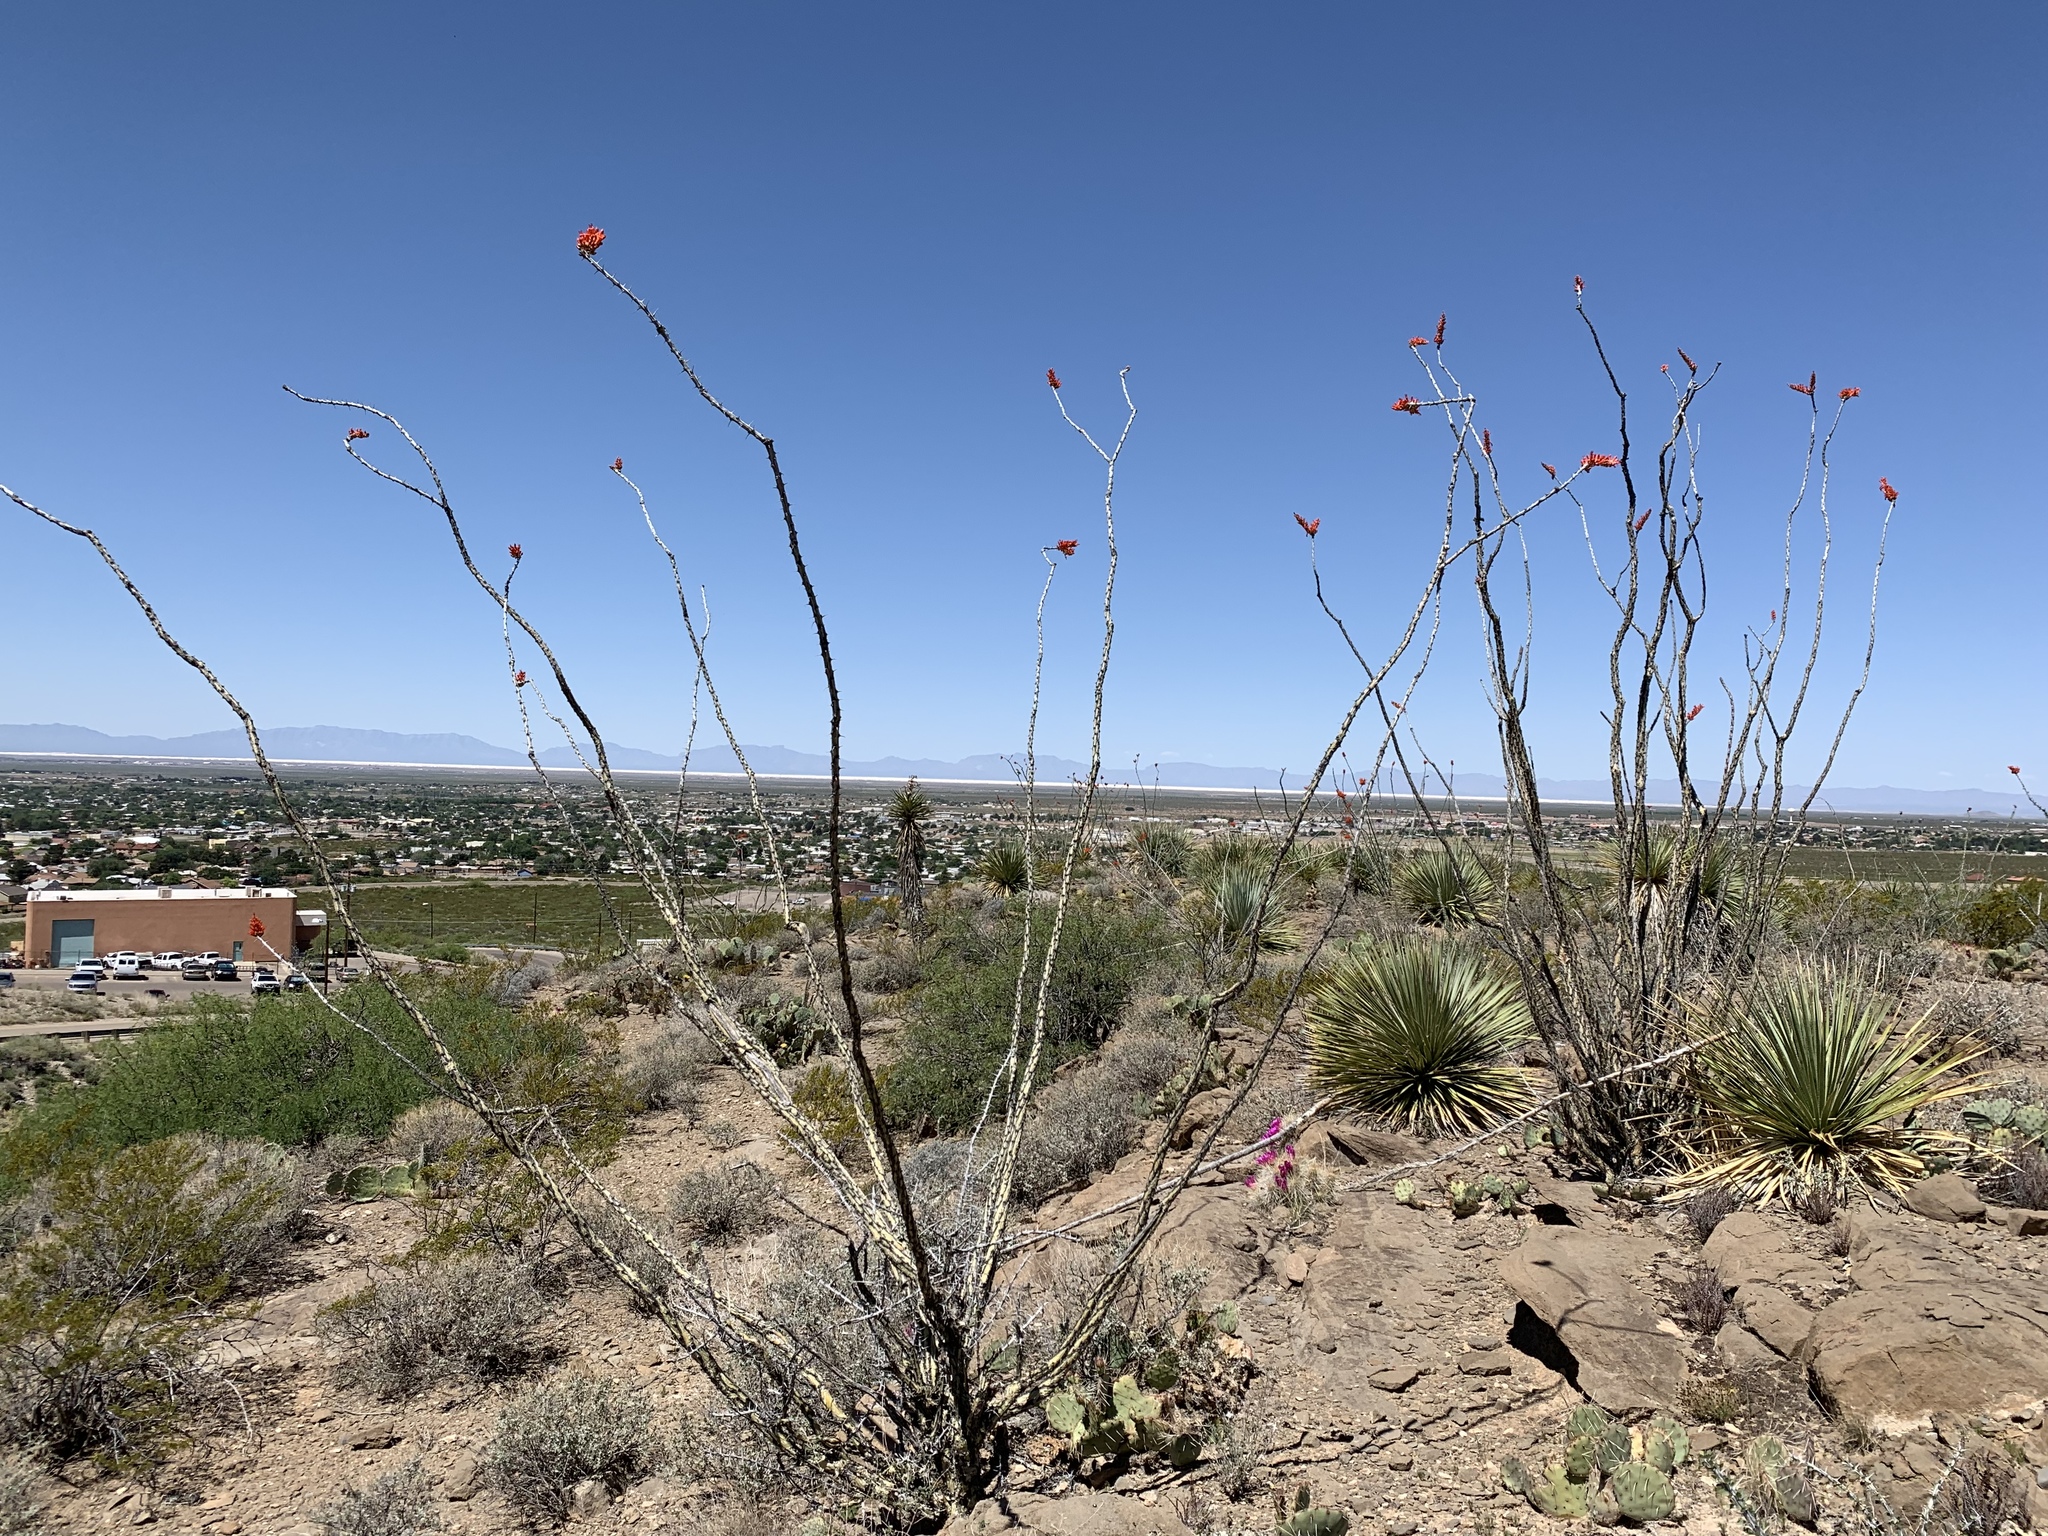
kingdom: Plantae
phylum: Tracheophyta
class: Magnoliopsida
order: Ericales
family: Fouquieriaceae
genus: Fouquieria
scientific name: Fouquieria splendens
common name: Vine-cactus
